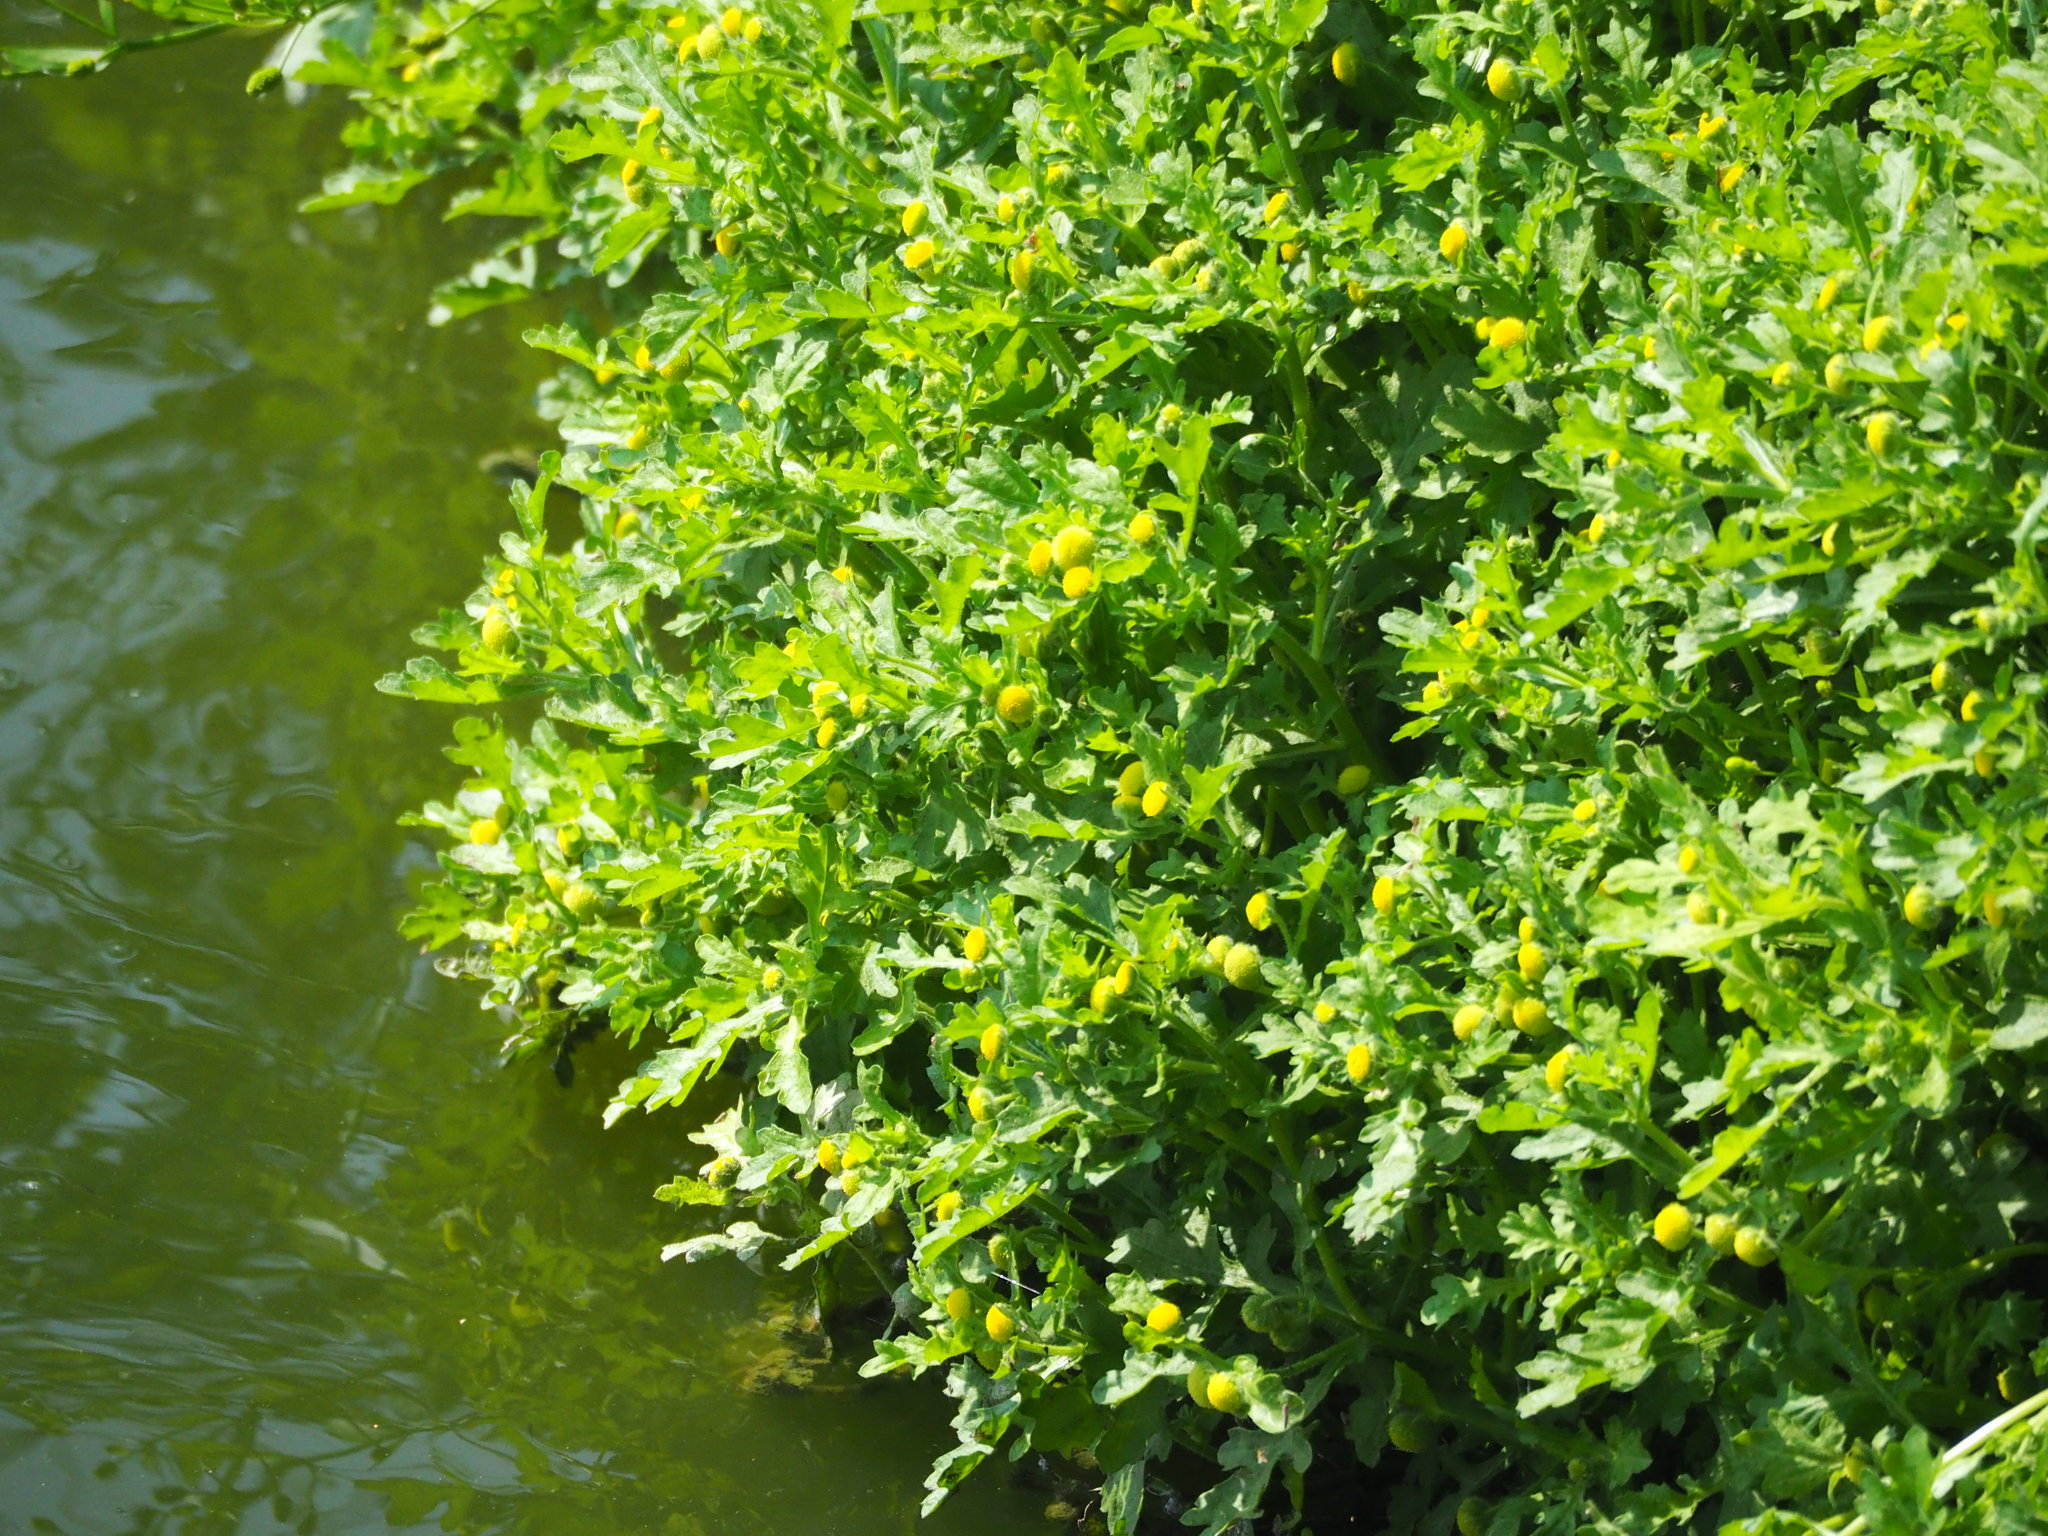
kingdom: Plantae
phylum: Tracheophyta
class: Magnoliopsida
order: Asterales
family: Asteraceae
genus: Grangea
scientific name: Grangea maderaspatana
